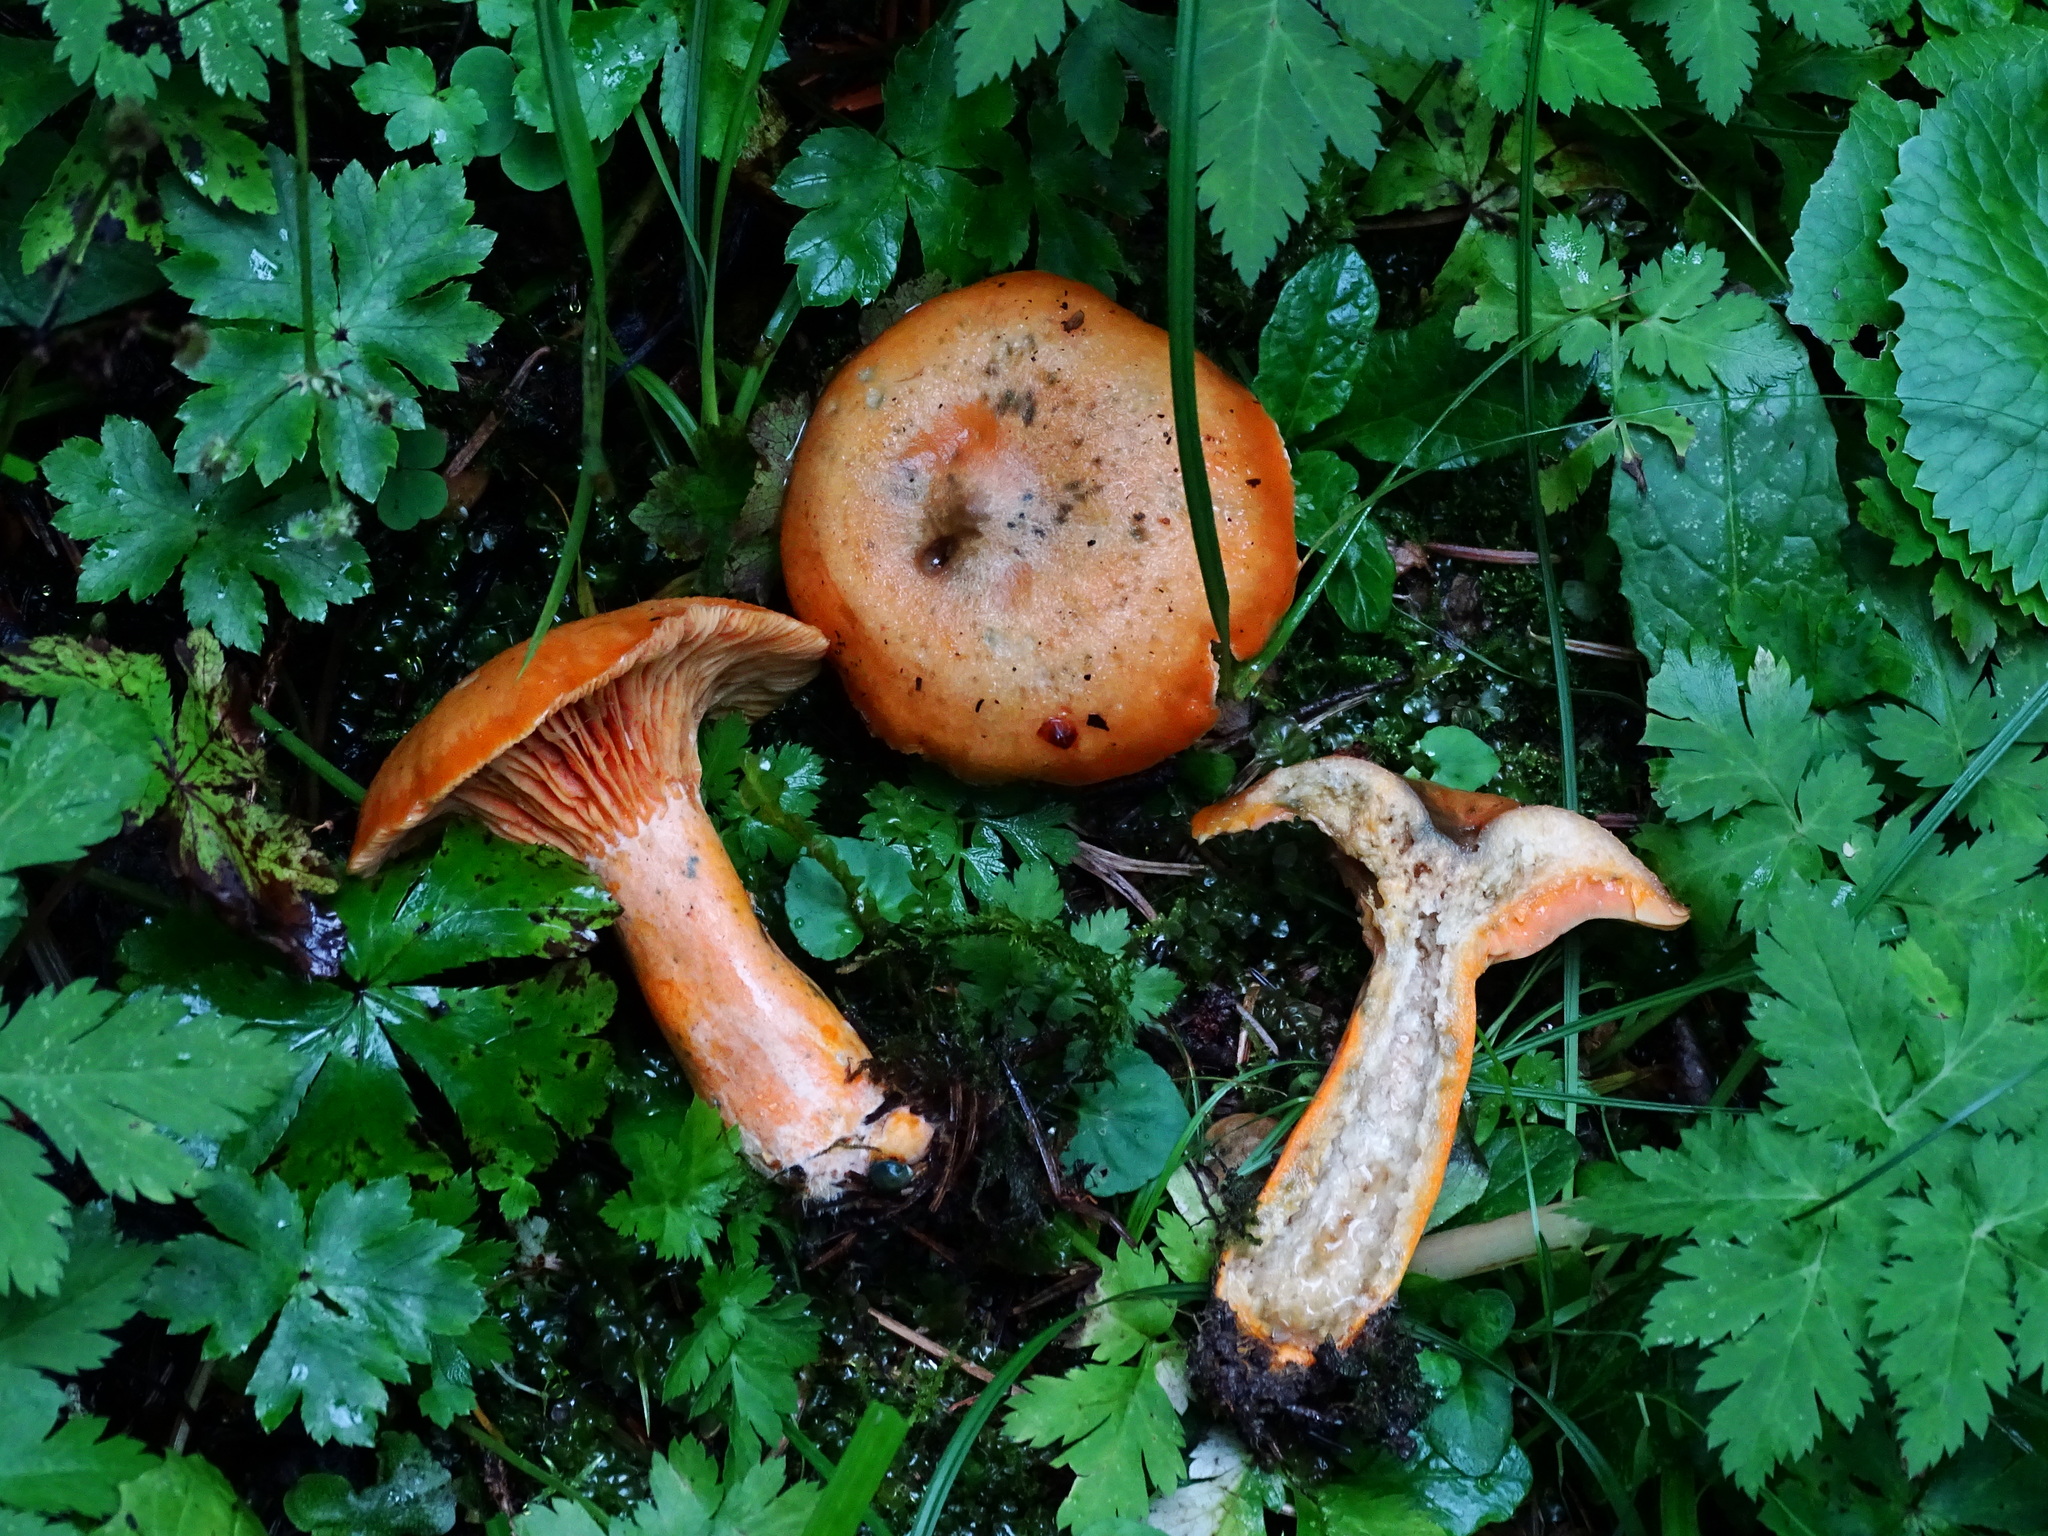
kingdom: Fungi
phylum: Basidiomycota
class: Agaricomycetes
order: Russulales
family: Russulaceae
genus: Lactarius
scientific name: Lactarius deterrimus
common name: False saffron milkcap
